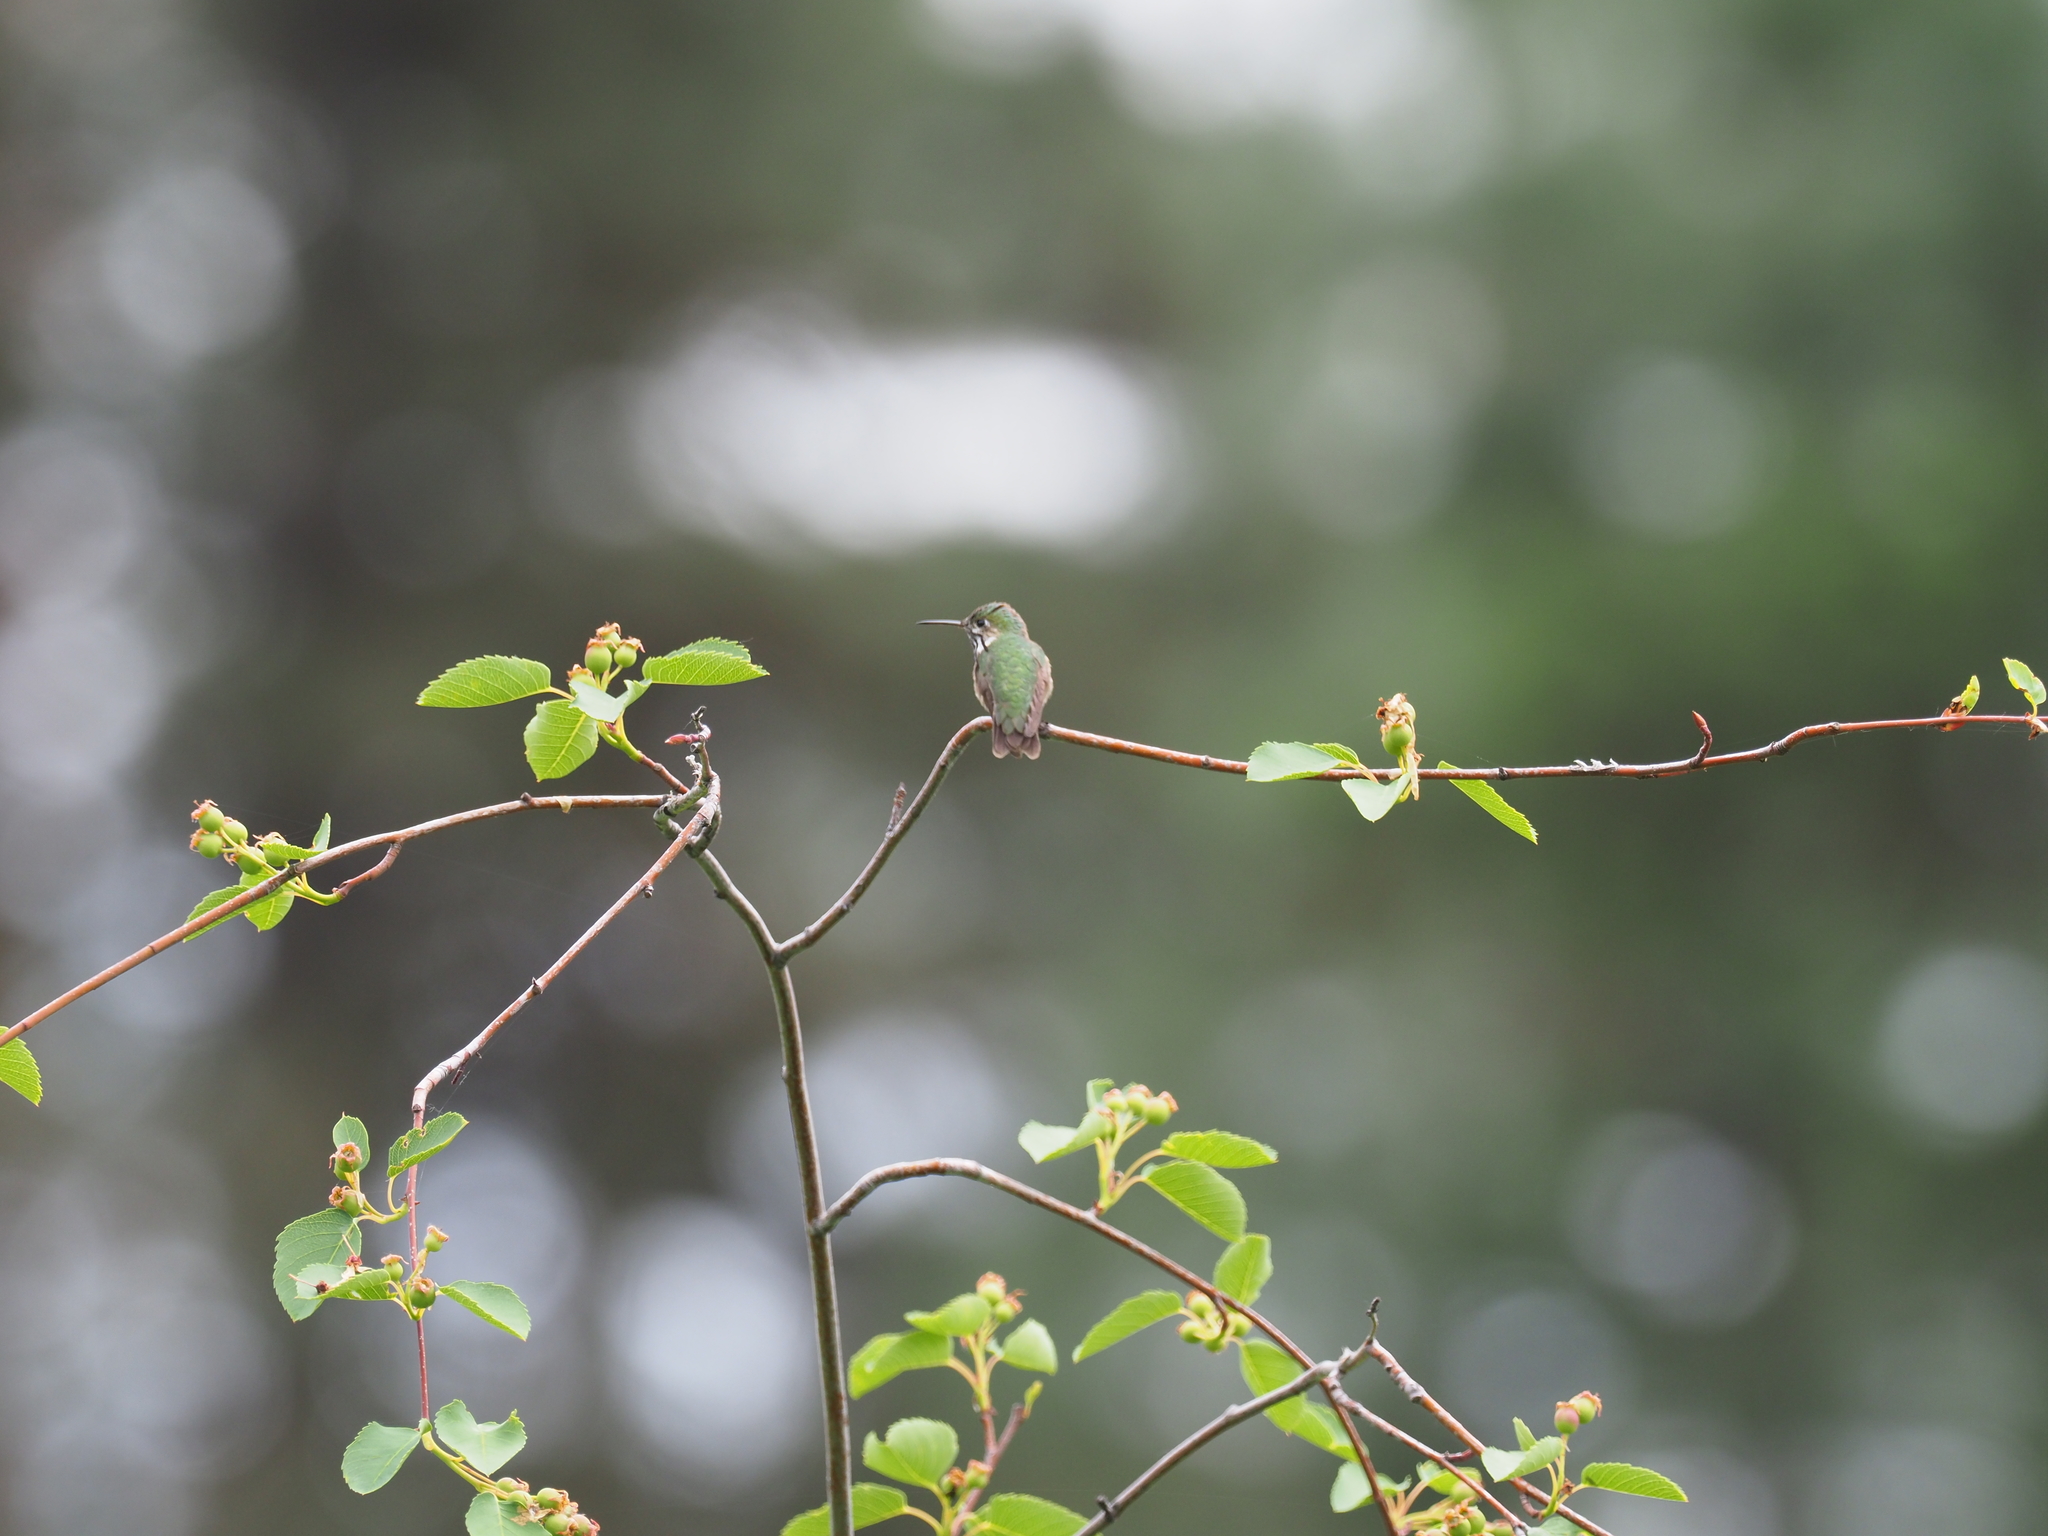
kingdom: Animalia
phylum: Chordata
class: Aves
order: Apodiformes
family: Trochilidae
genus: Selasphorus
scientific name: Selasphorus calliope
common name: Calliope hummingbird
